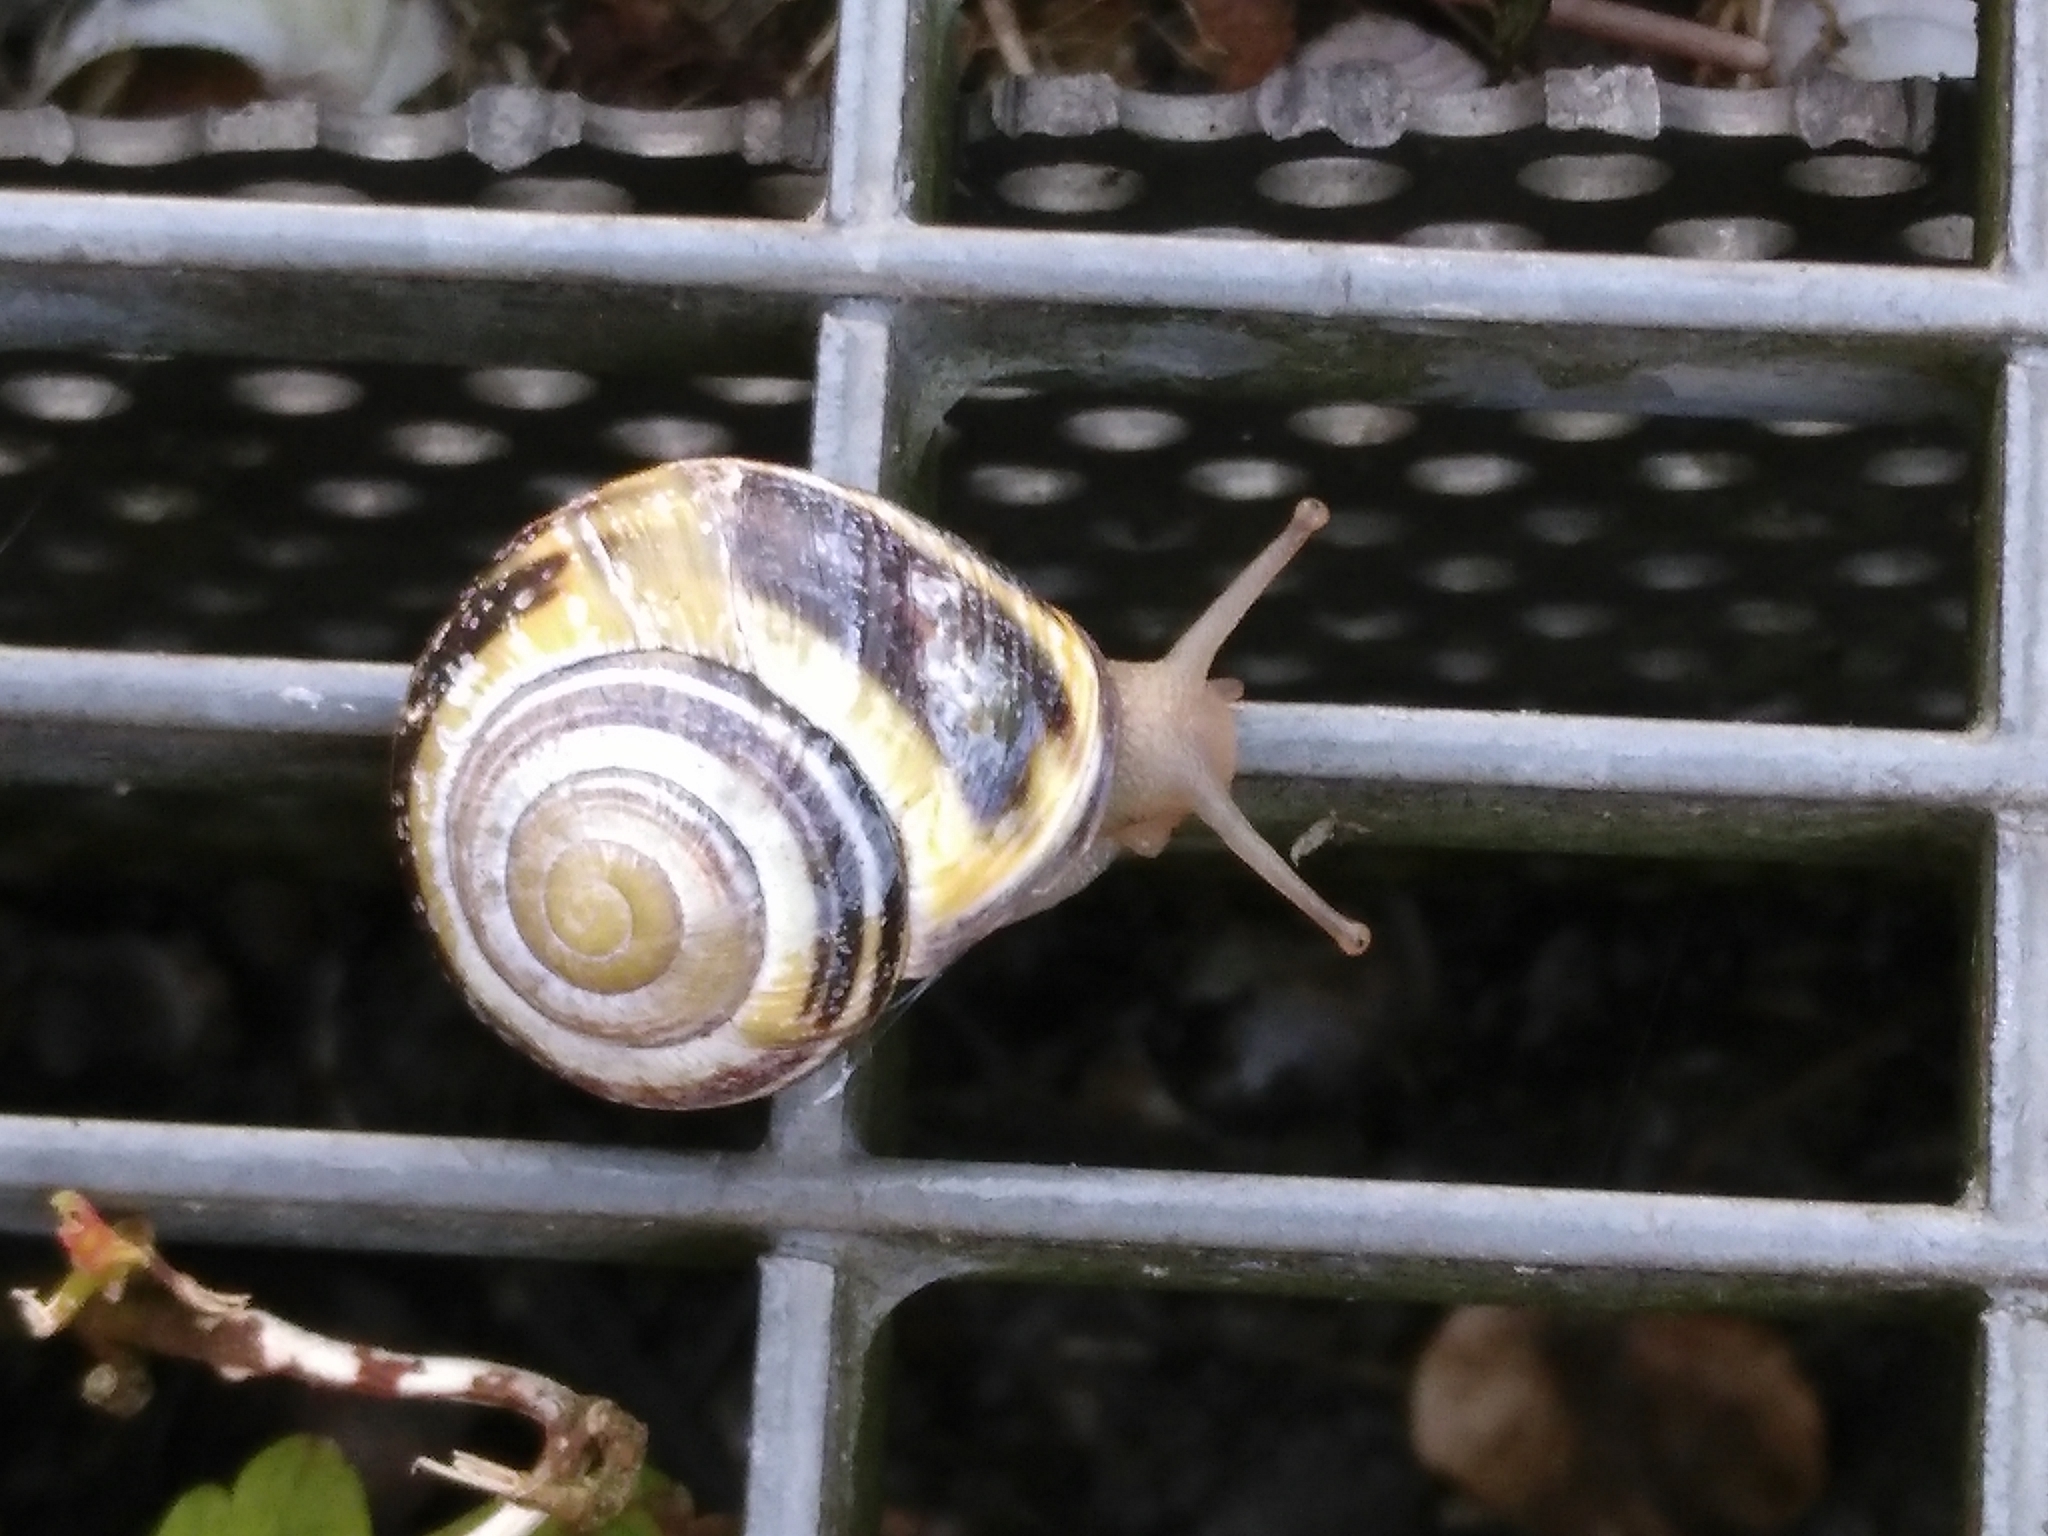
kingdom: Animalia
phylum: Mollusca
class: Gastropoda
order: Stylommatophora
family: Helicidae
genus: Cepaea
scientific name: Cepaea nemoralis
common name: Grovesnail
